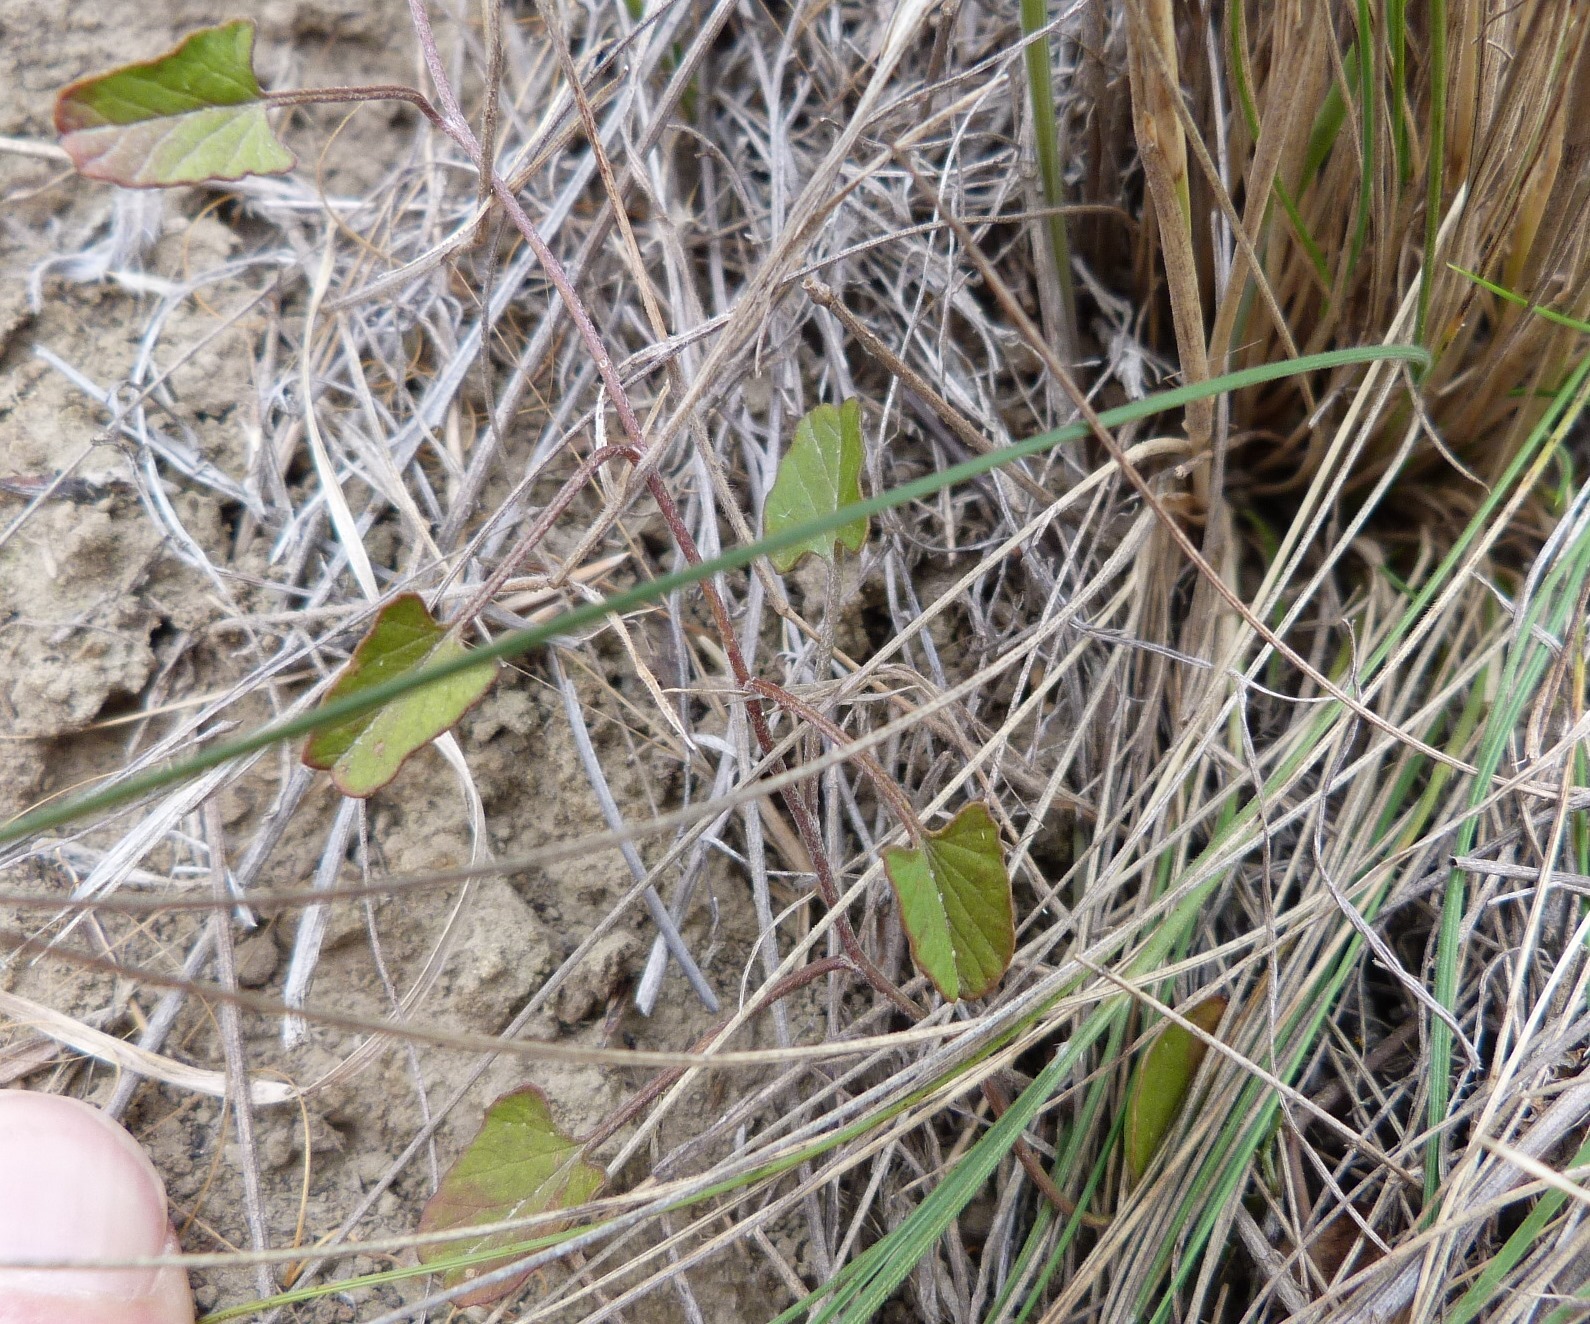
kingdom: Plantae
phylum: Tracheophyta
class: Magnoliopsida
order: Solanales
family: Convolvulaceae
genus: Convolvulus
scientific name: Convolvulus waitaha
